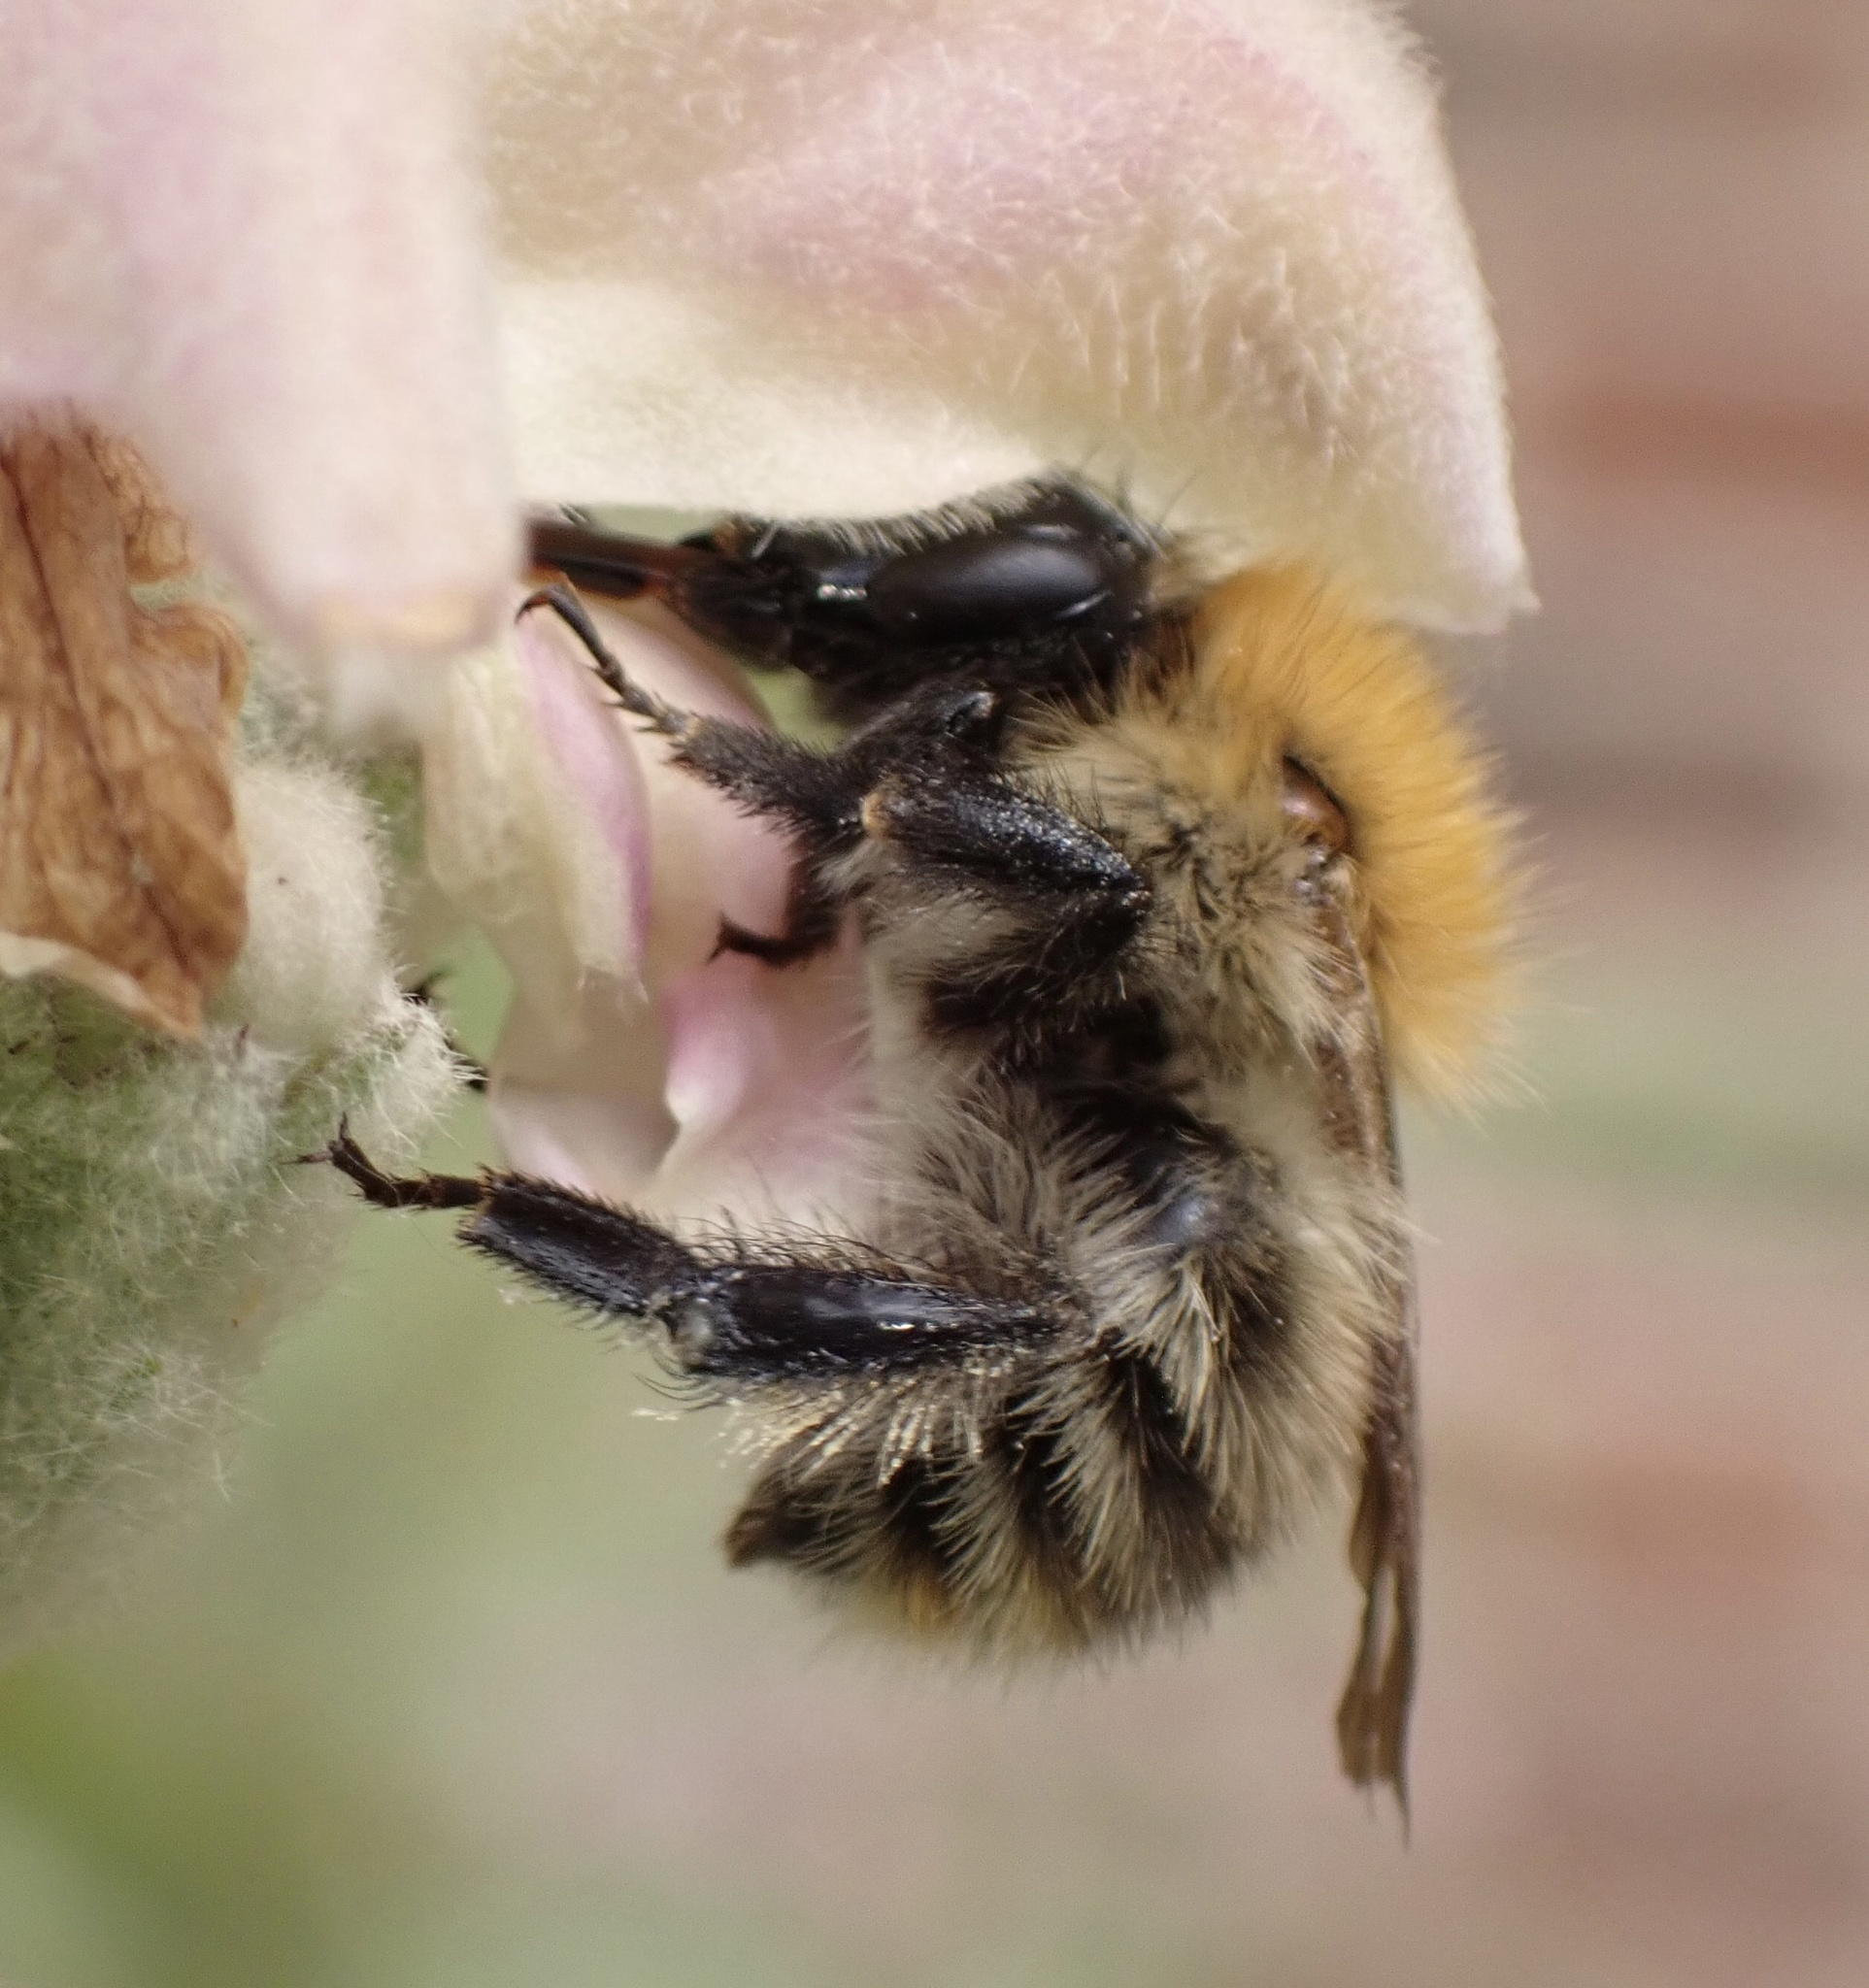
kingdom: Animalia
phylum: Arthropoda
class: Insecta
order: Hymenoptera
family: Apidae
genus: Bombus
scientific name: Bombus pascuorum
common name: Common carder bee
